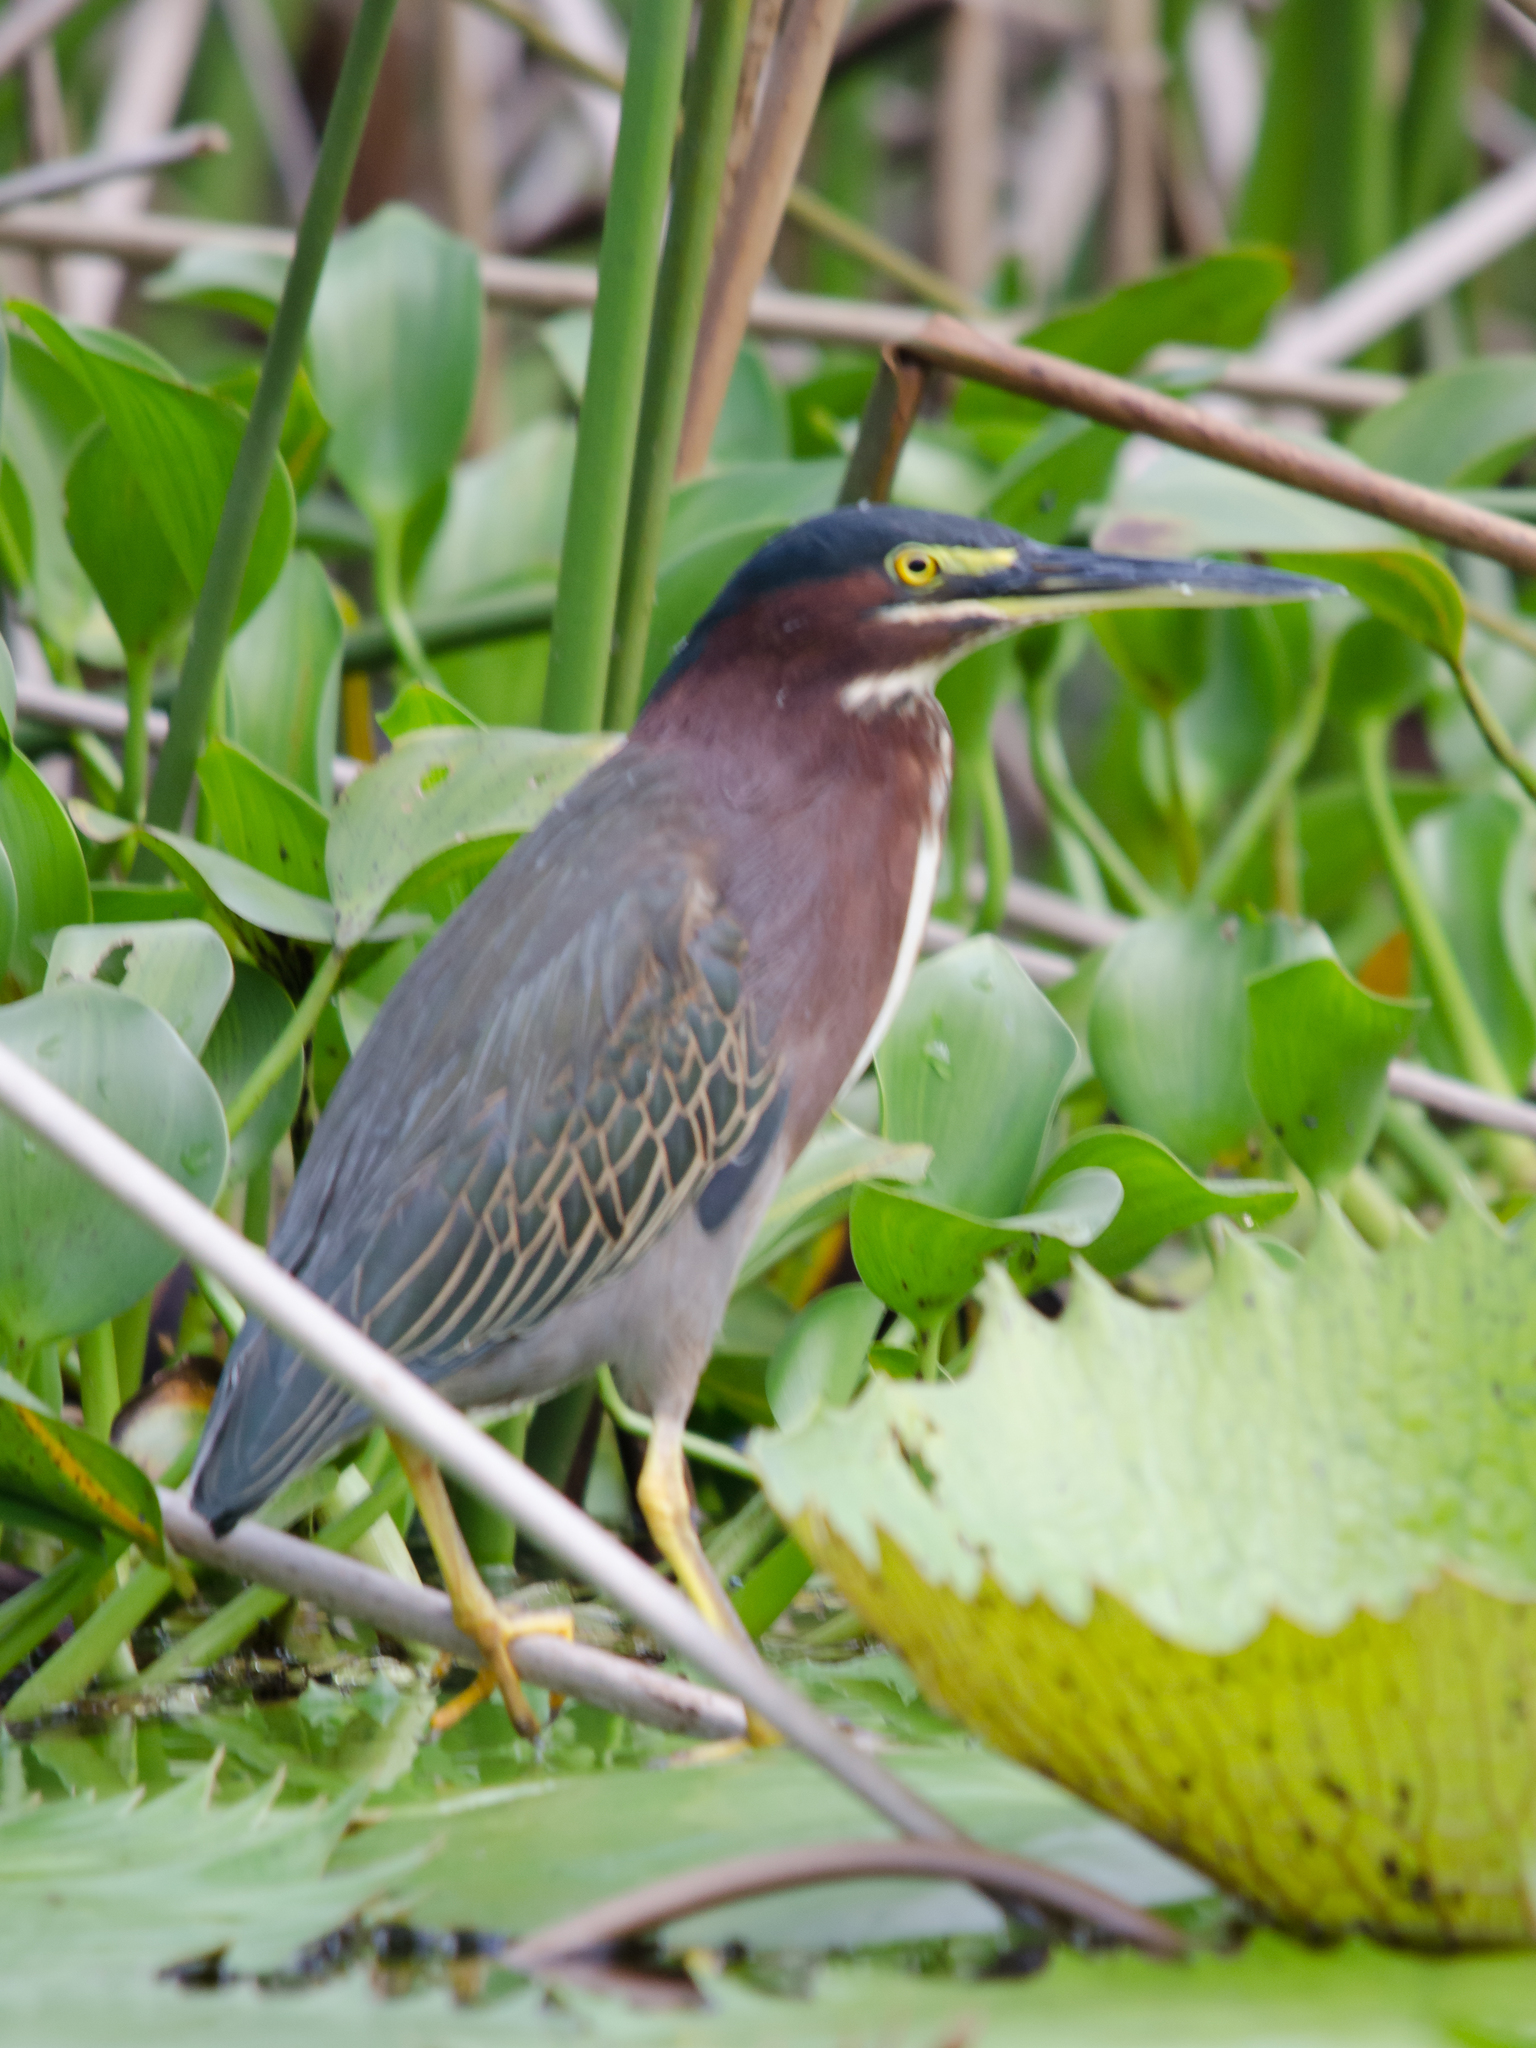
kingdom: Animalia
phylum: Chordata
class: Aves
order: Pelecaniformes
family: Ardeidae
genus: Butorides
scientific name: Butorides virescens
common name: Green heron
